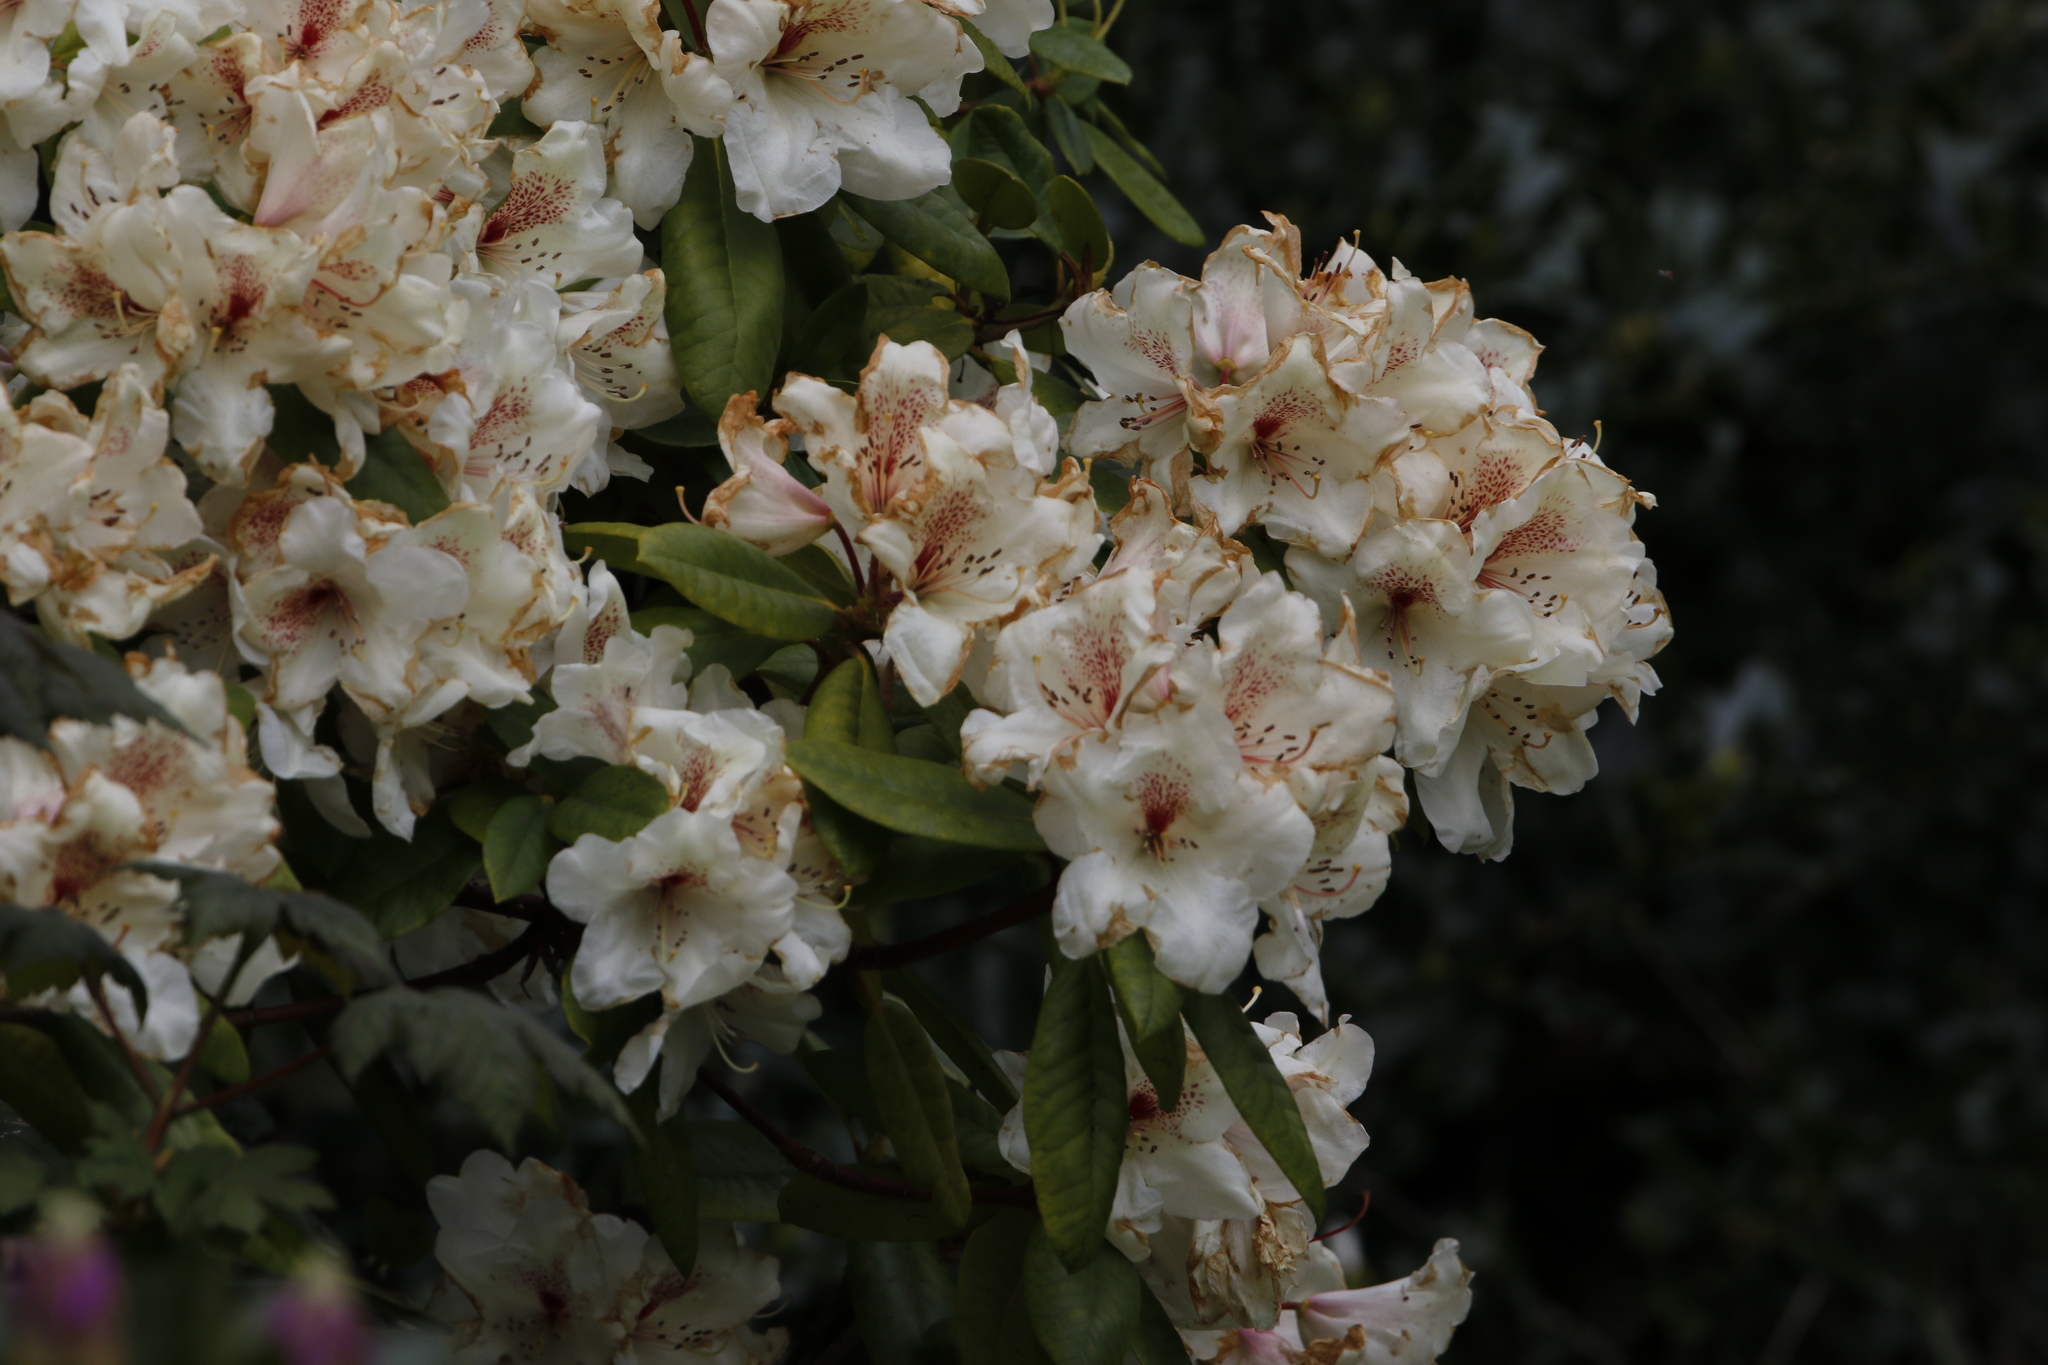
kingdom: Plantae
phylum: Tracheophyta
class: Magnoliopsida
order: Ericales
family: Ericaceae
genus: Rhododendron
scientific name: Rhododendron
